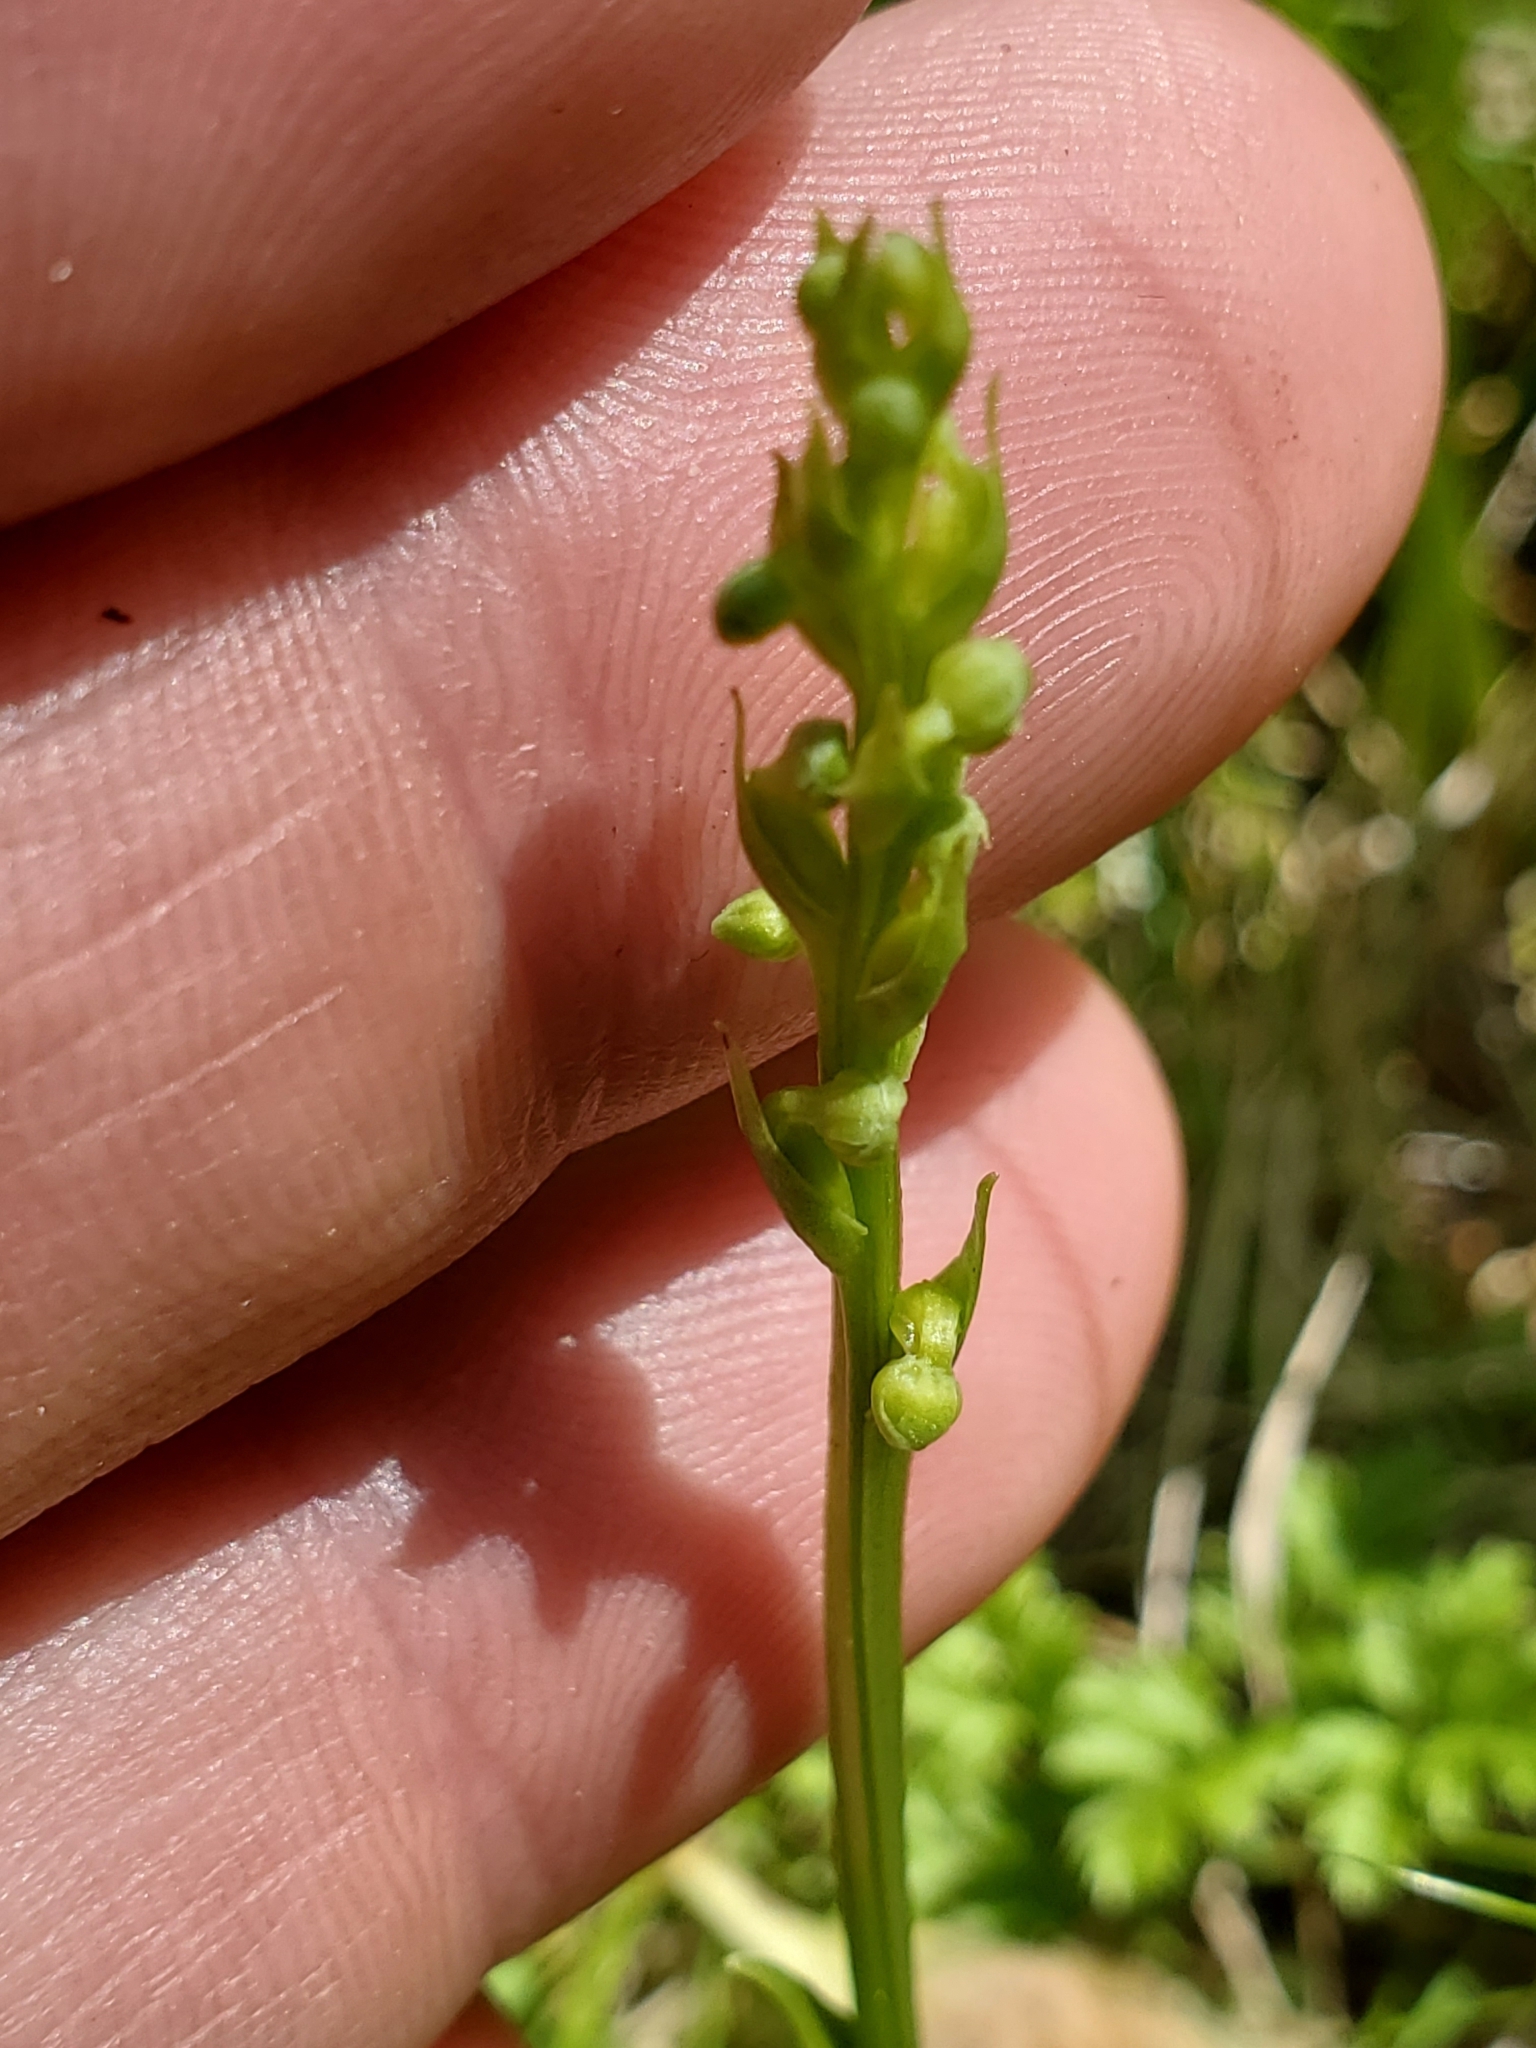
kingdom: Plantae
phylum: Tracheophyta
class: Liliopsida
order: Asparagales
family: Orchidaceae
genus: Platanthera
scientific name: Platanthera chorisiana
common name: Chamisso's orchid
